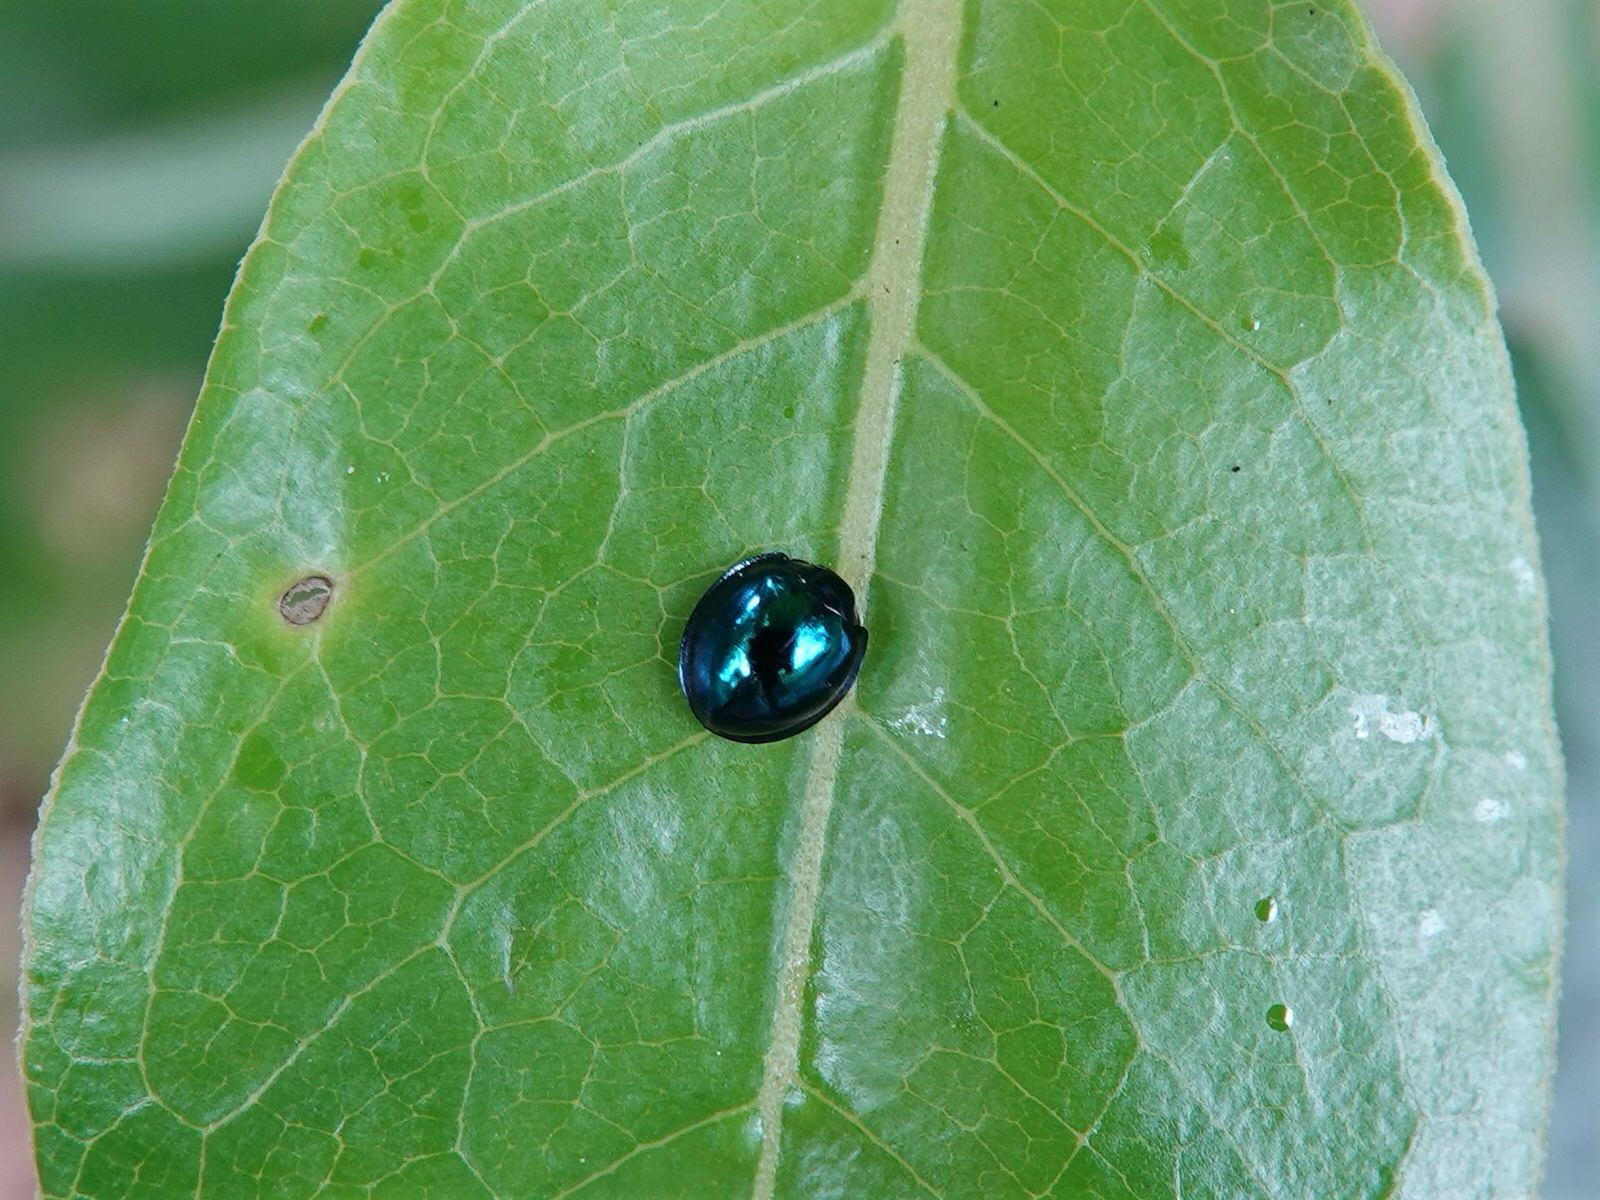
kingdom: Animalia
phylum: Arthropoda
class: Insecta
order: Coleoptera
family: Coccinellidae
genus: Halmus
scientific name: Halmus chalybeus
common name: Steel blue ladybird beetle
